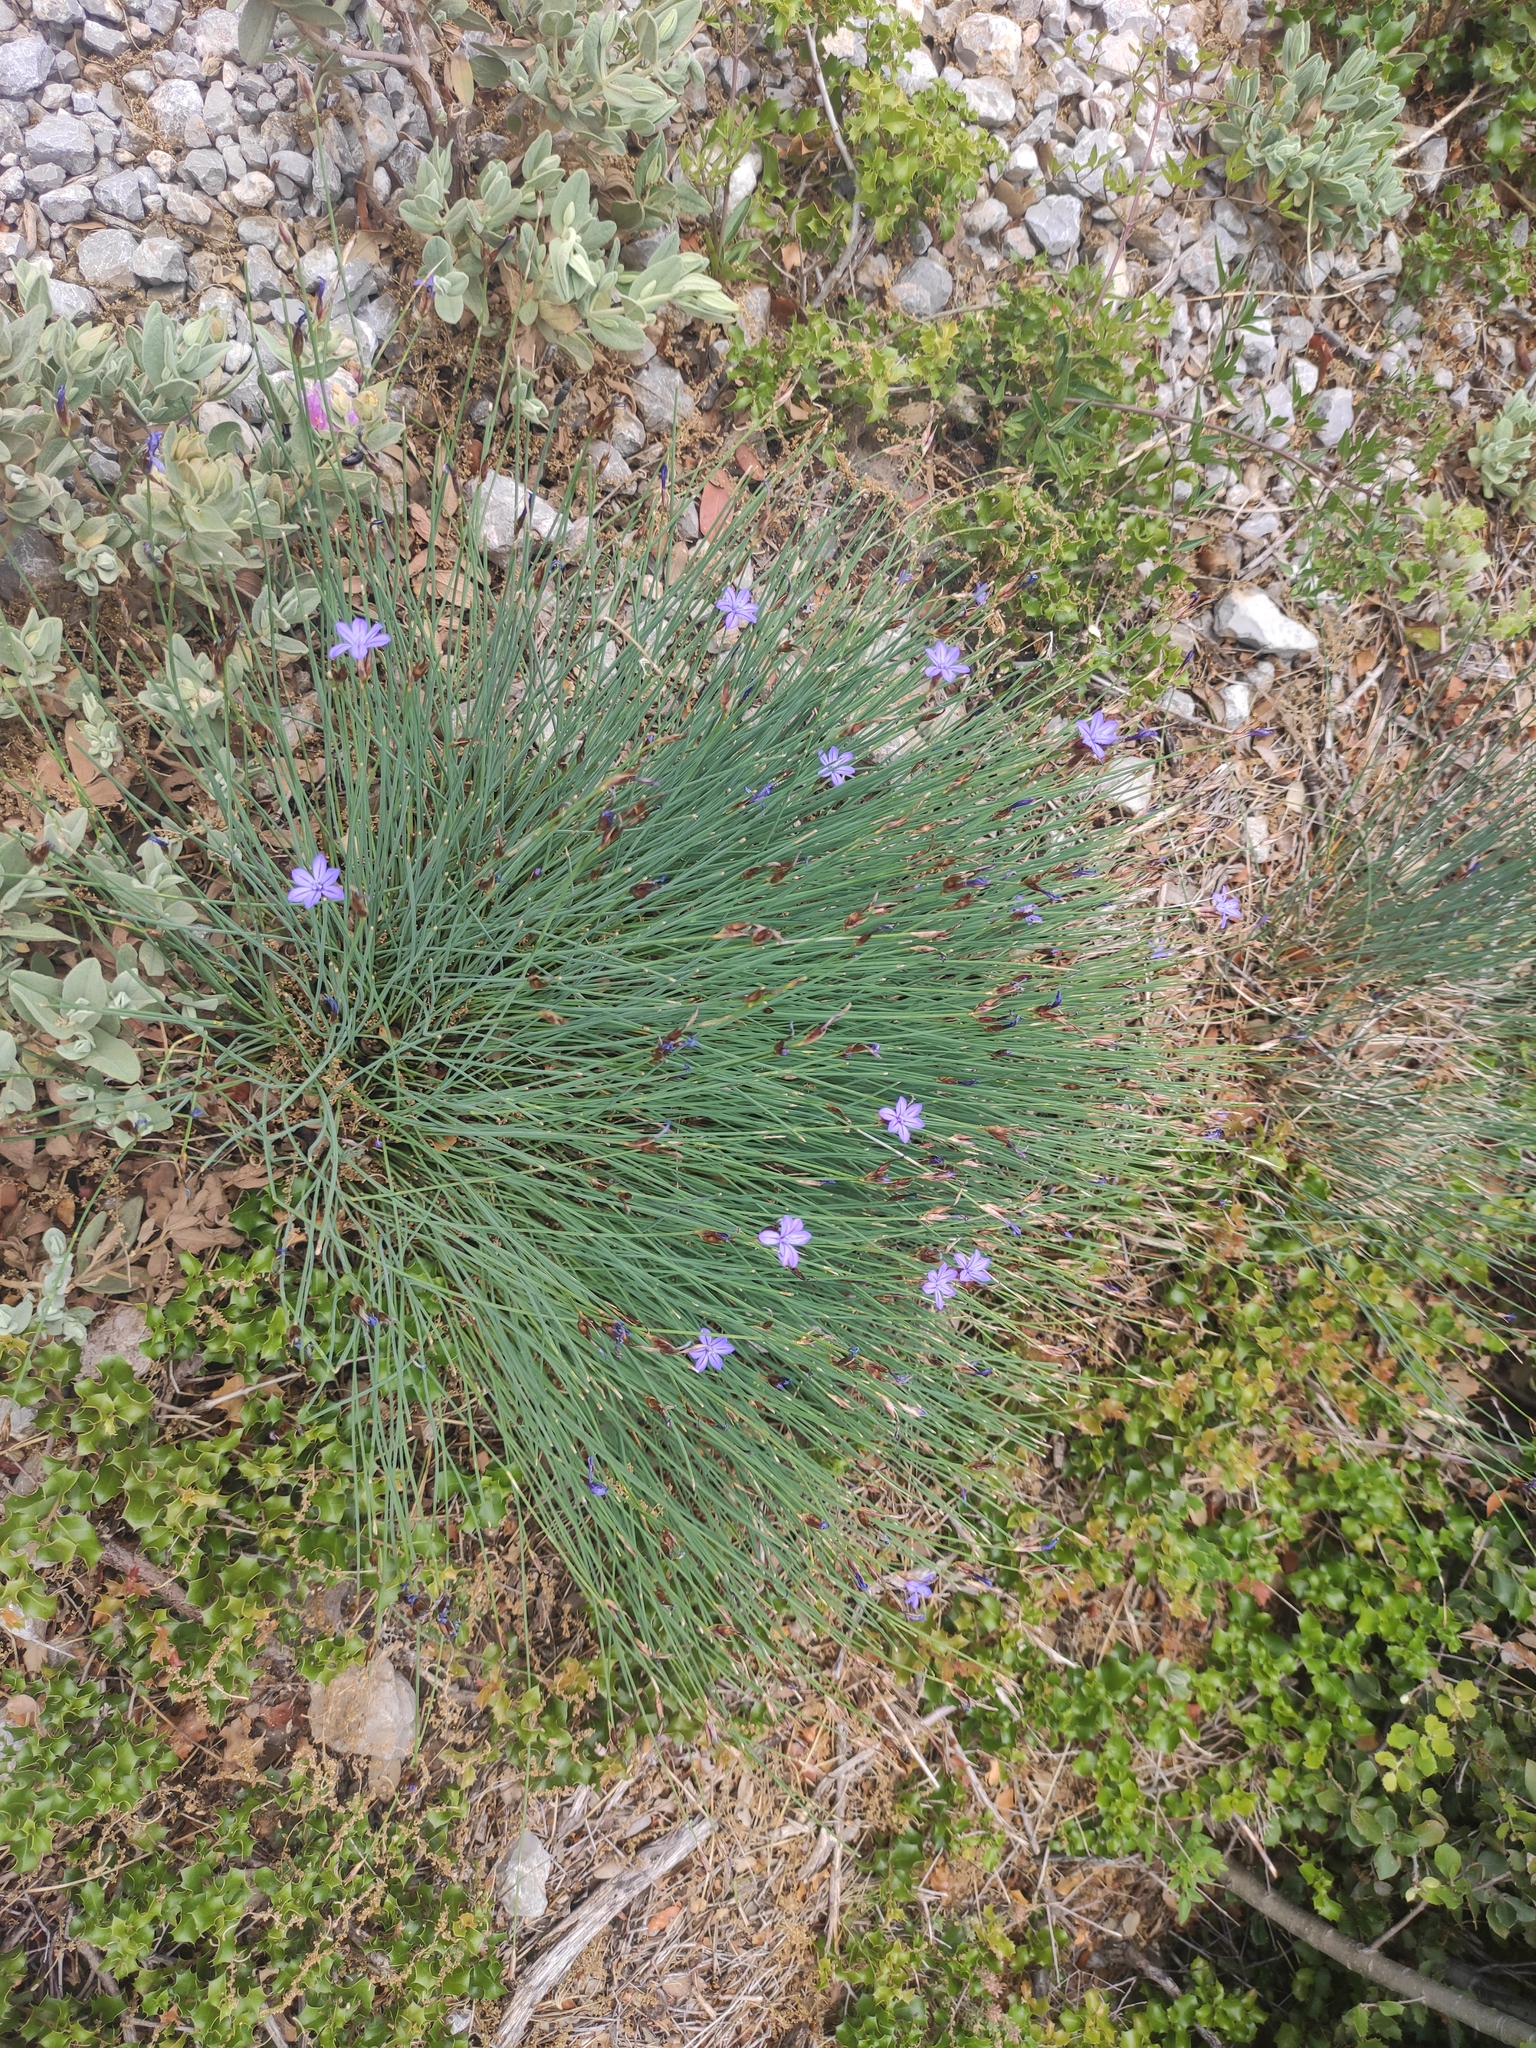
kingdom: Plantae
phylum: Tracheophyta
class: Liliopsida
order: Asparagales
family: Asparagaceae
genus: Aphyllanthes
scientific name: Aphyllanthes monspeliensis
